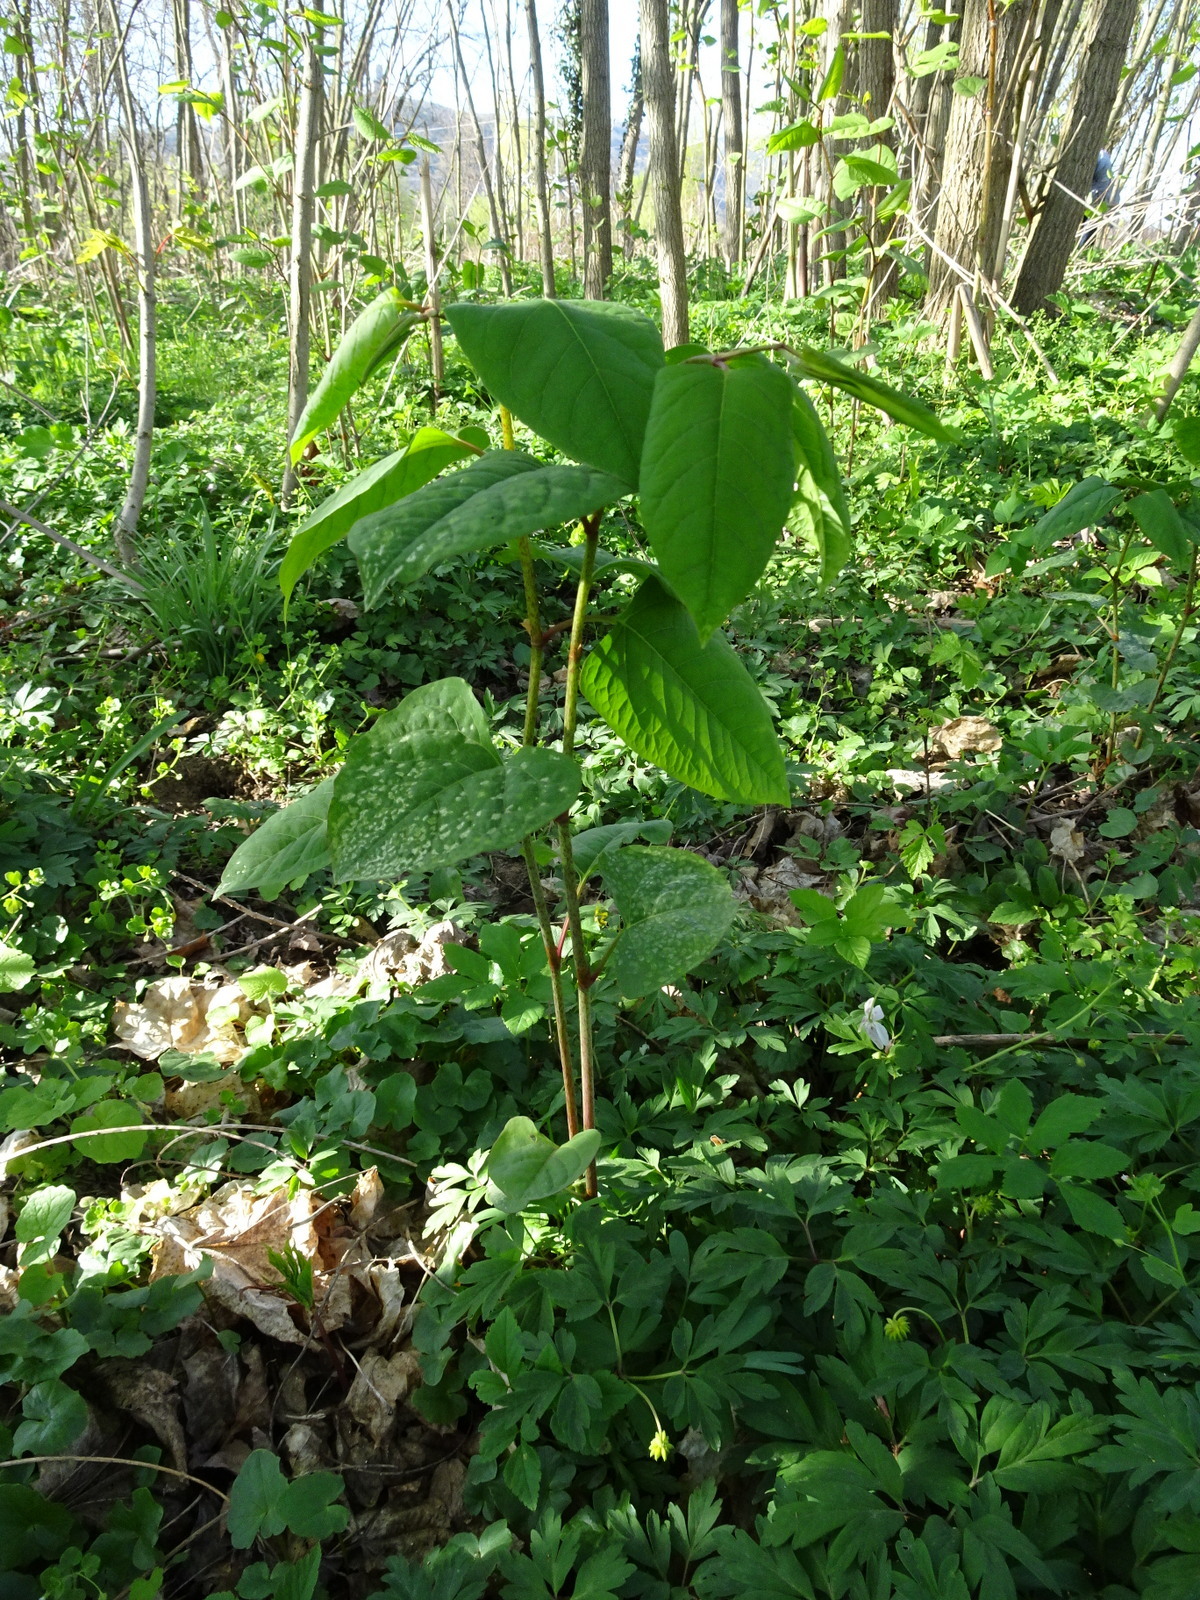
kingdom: Plantae
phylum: Tracheophyta
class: Magnoliopsida
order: Caryophyllales
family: Polygonaceae
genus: Reynoutria
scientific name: Reynoutria japonica
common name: Japanese knotweed
